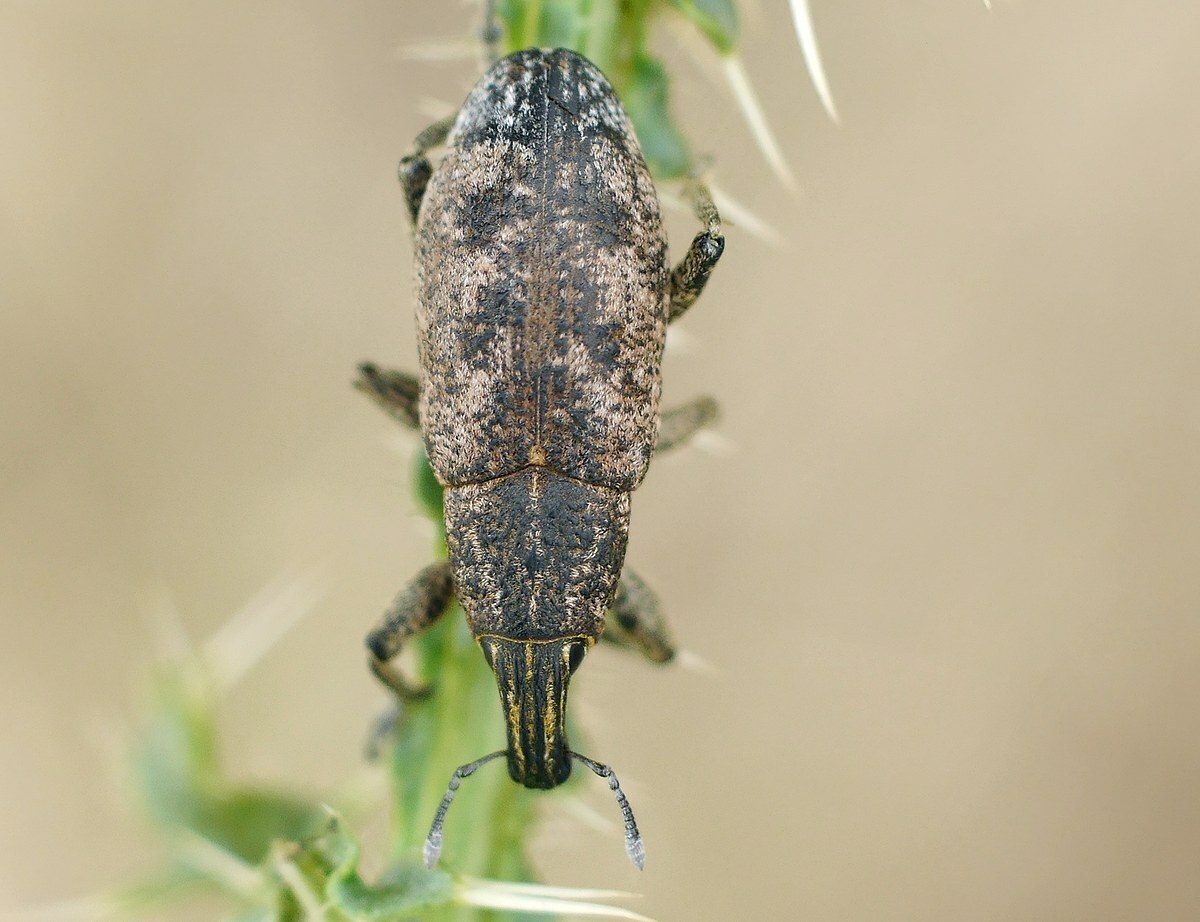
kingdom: Animalia
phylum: Arthropoda
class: Insecta
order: Coleoptera
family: Curculionidae
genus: Cleonis
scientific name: Cleonis pigra
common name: Large thistle weevil
